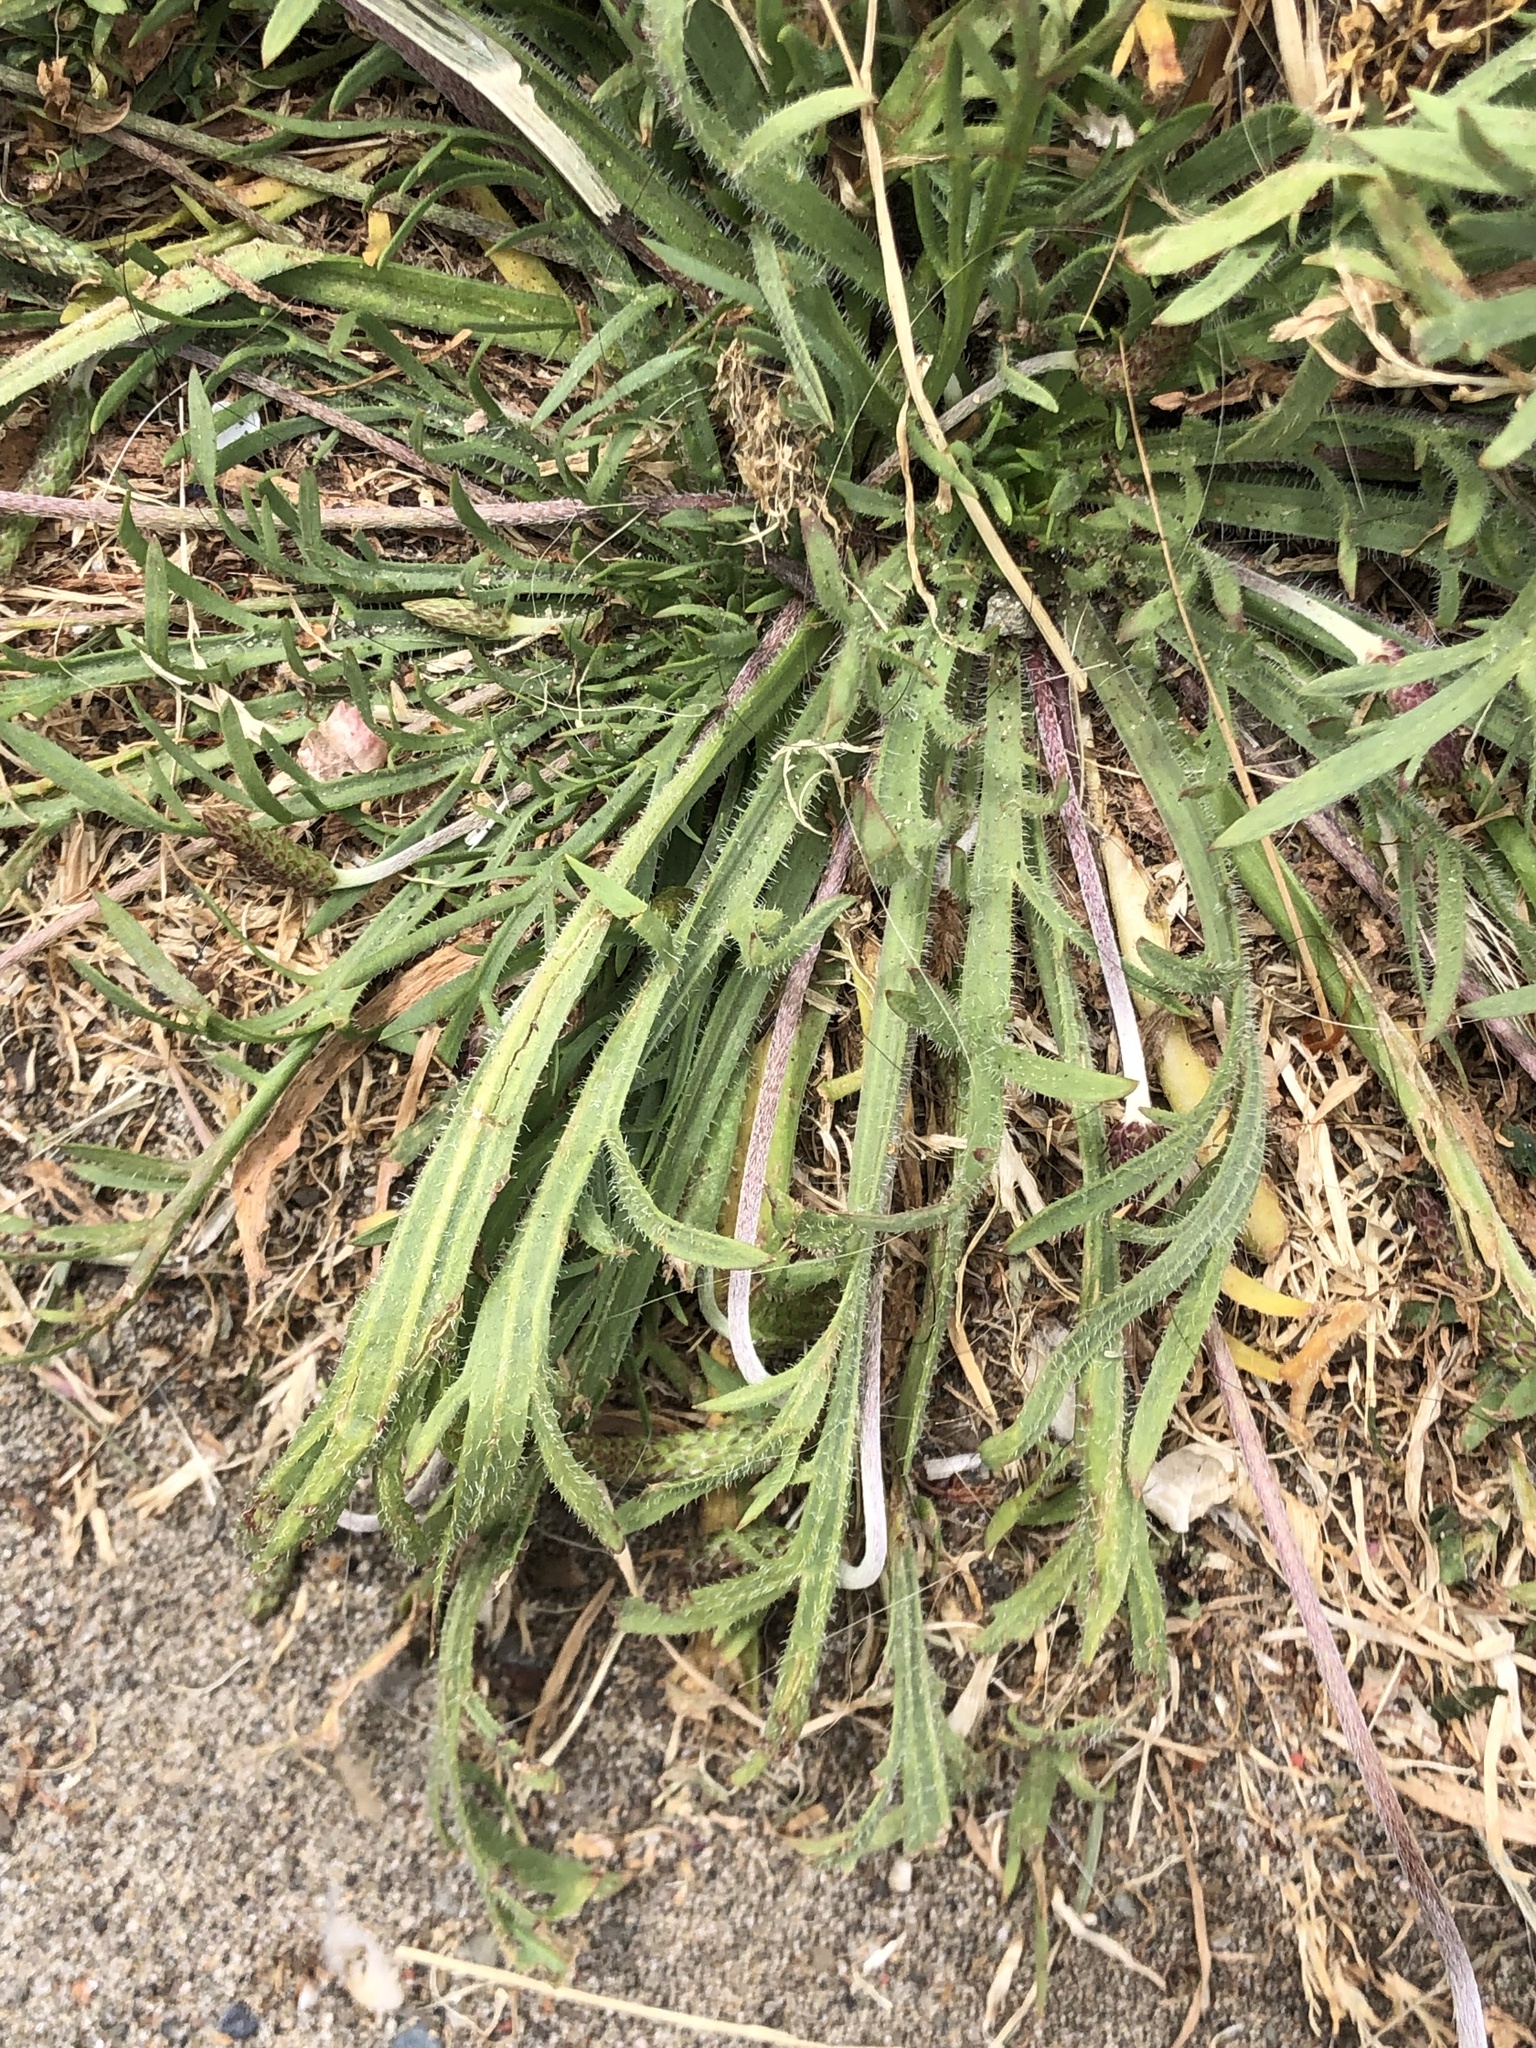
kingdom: Plantae
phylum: Tracheophyta
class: Magnoliopsida
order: Lamiales
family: Plantaginaceae
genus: Plantago
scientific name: Plantago coronopus
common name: Buck's-horn plantain
